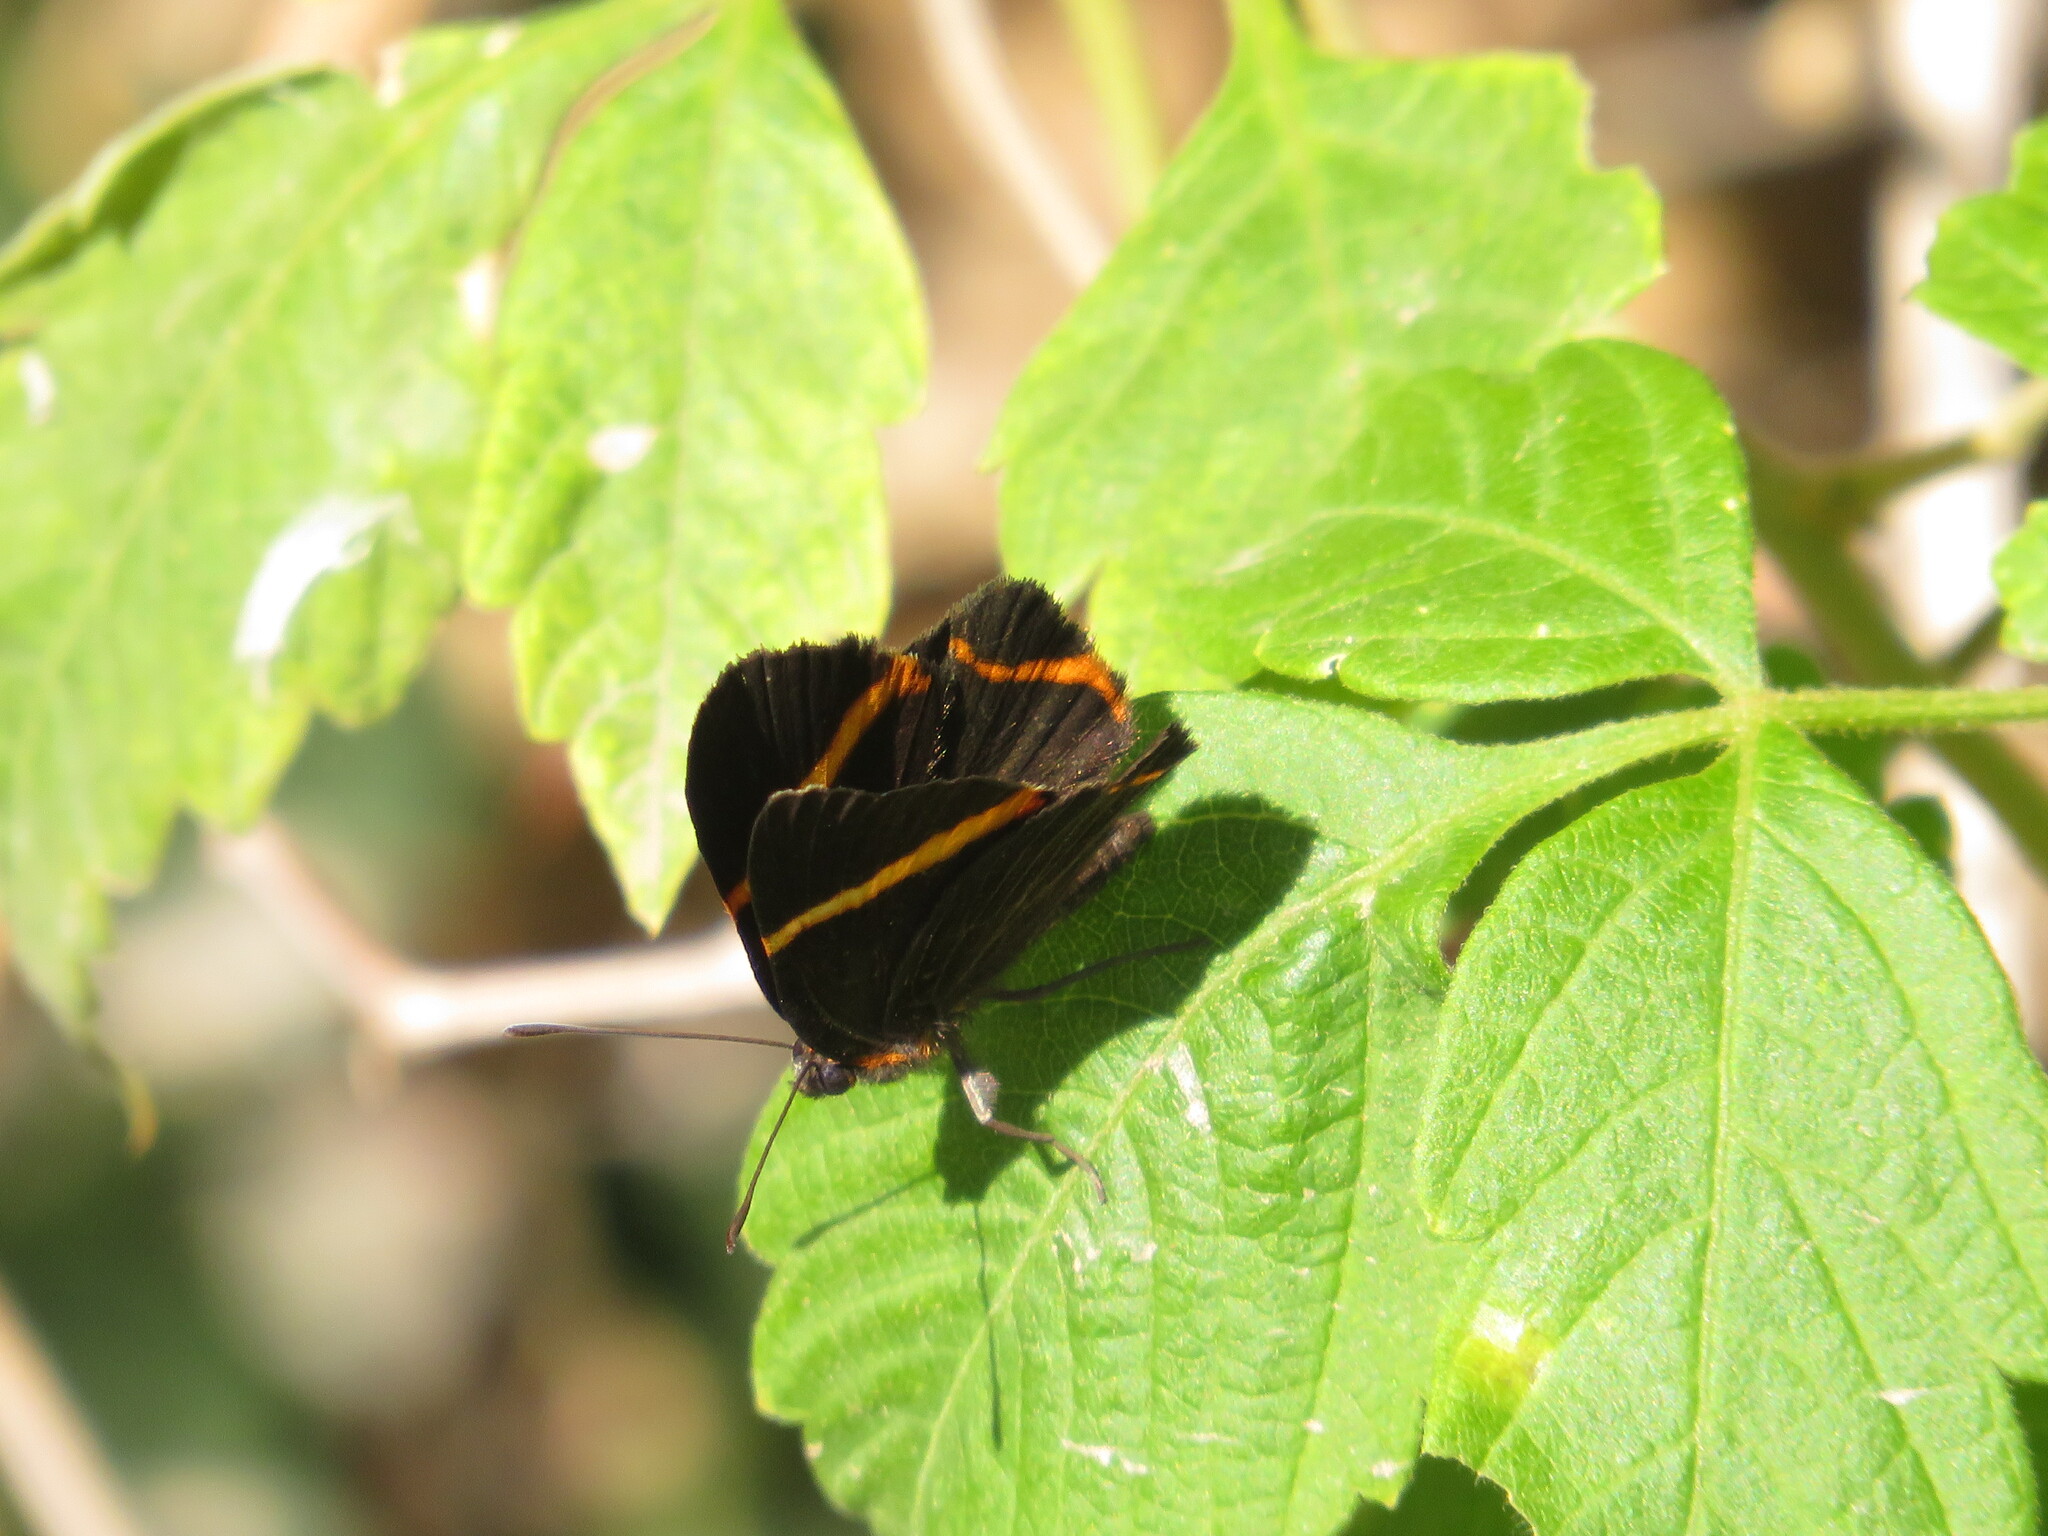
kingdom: Animalia
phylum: Arthropoda
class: Insecta
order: Lepidoptera
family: Riodinidae
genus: Riodina
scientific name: Riodina lysippoides
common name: Little dancer metalmark
